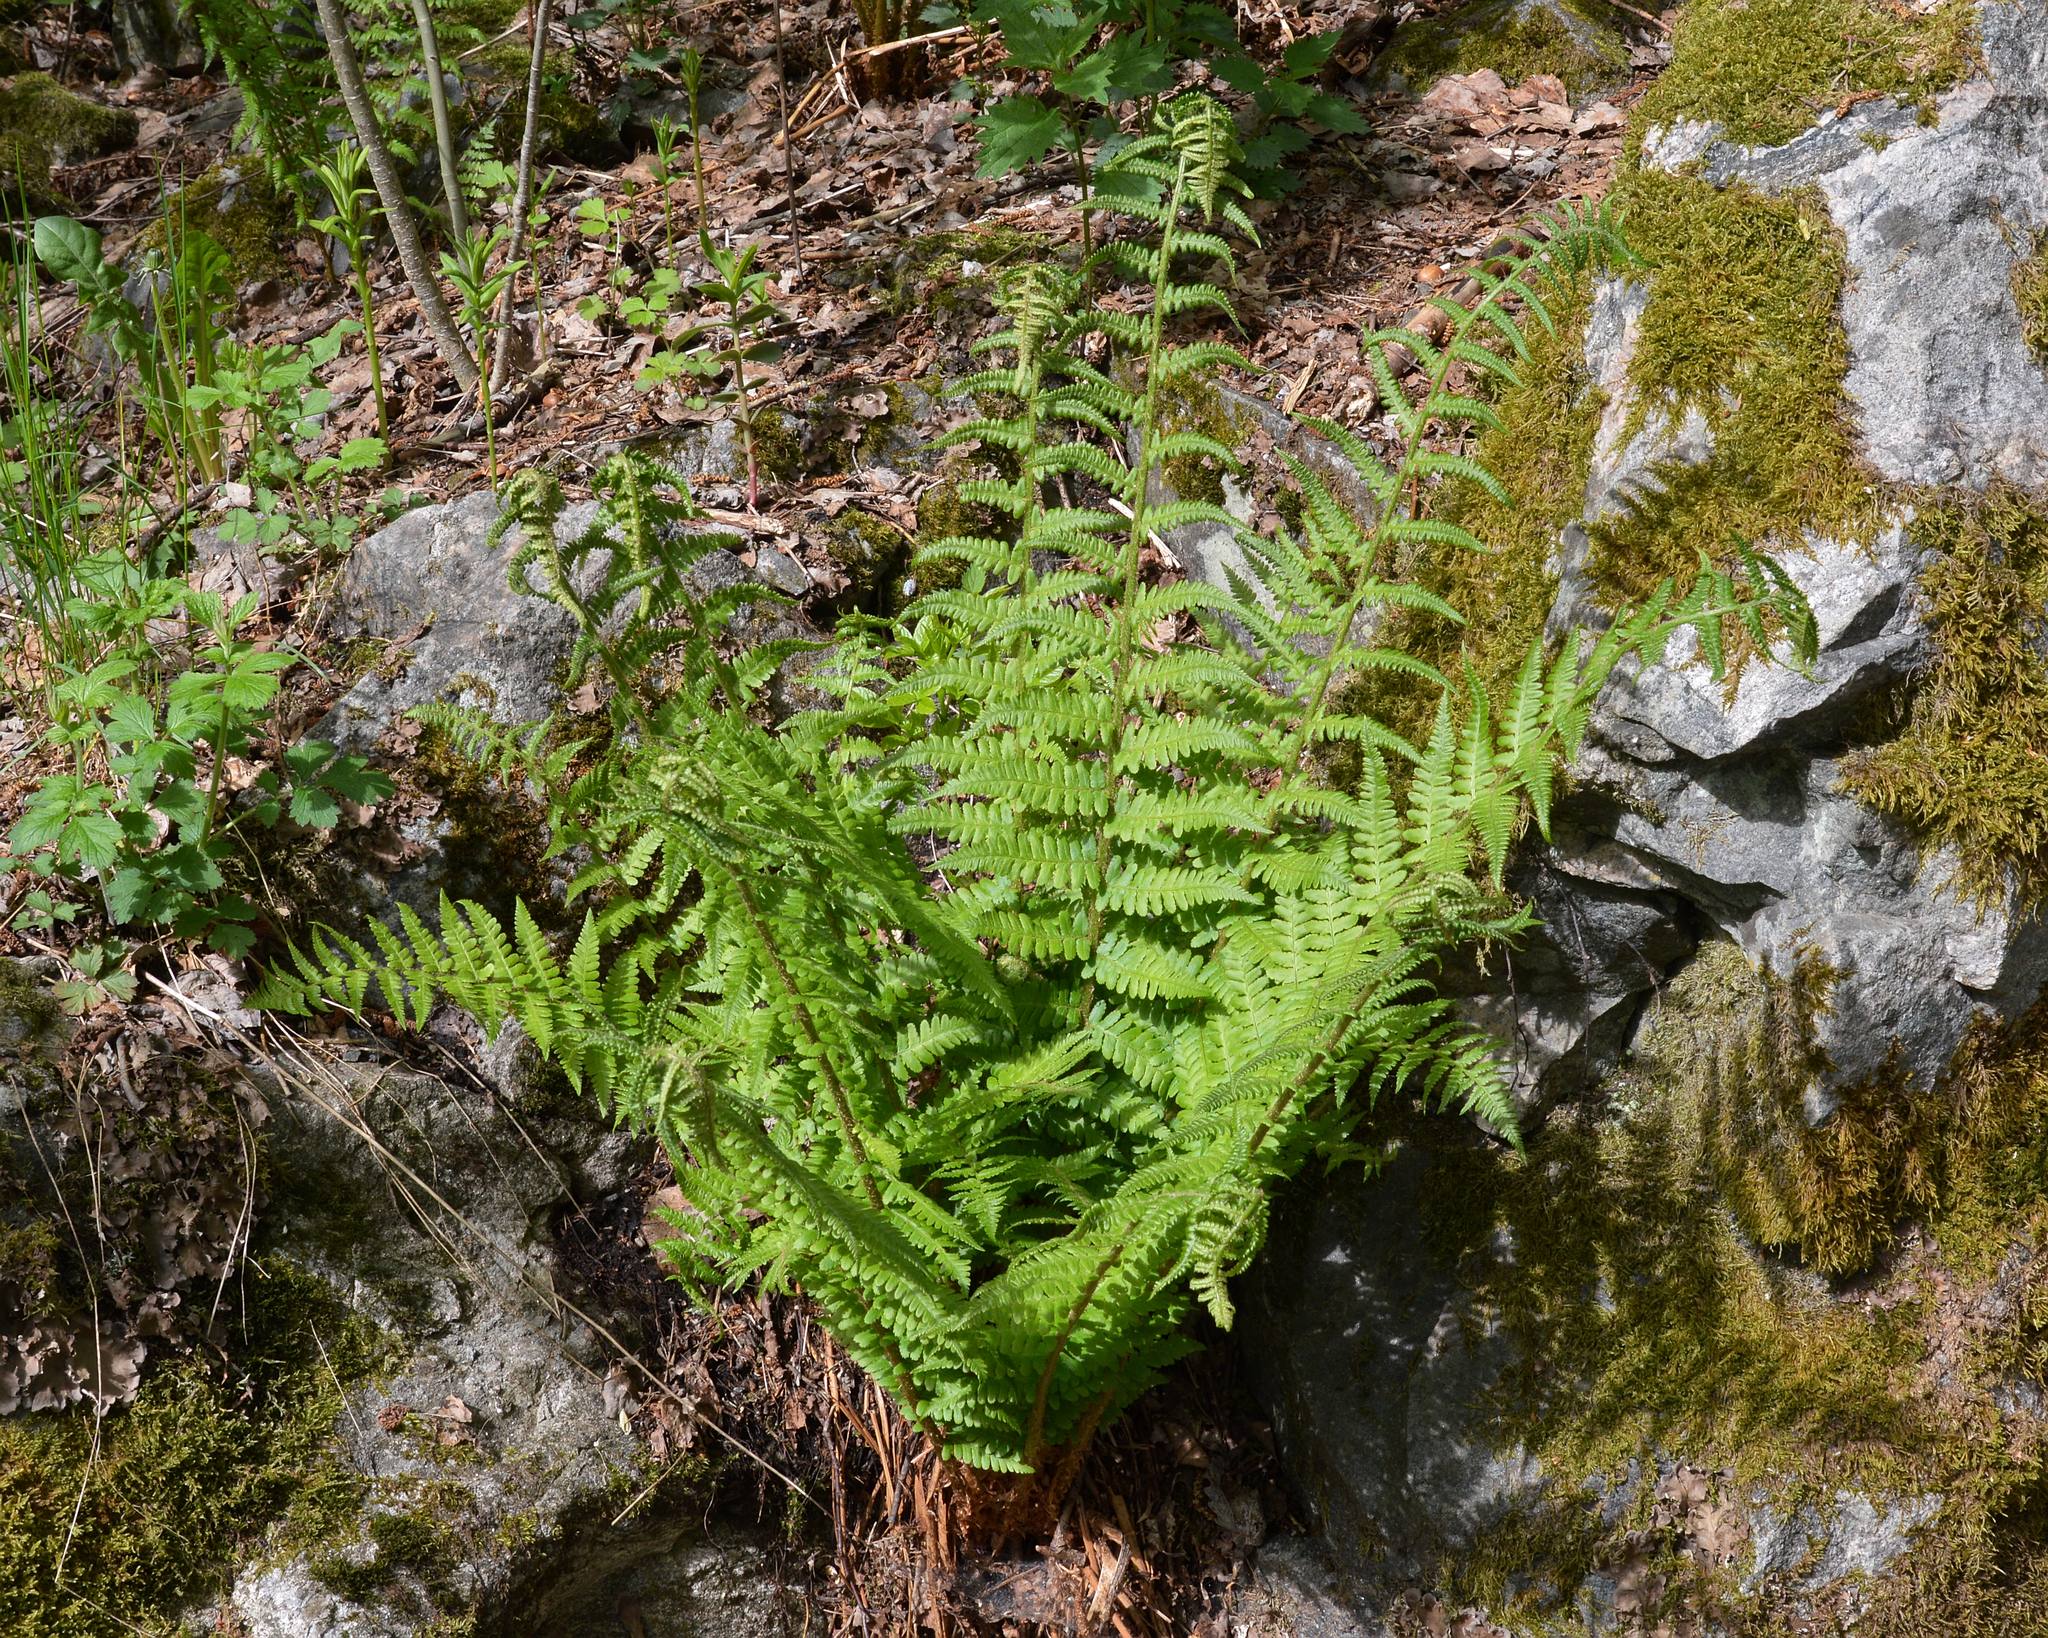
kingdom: Plantae
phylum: Tracheophyta
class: Polypodiopsida
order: Polypodiales
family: Dryopteridaceae
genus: Dryopteris
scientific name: Dryopteris filix-mas
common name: Male fern
